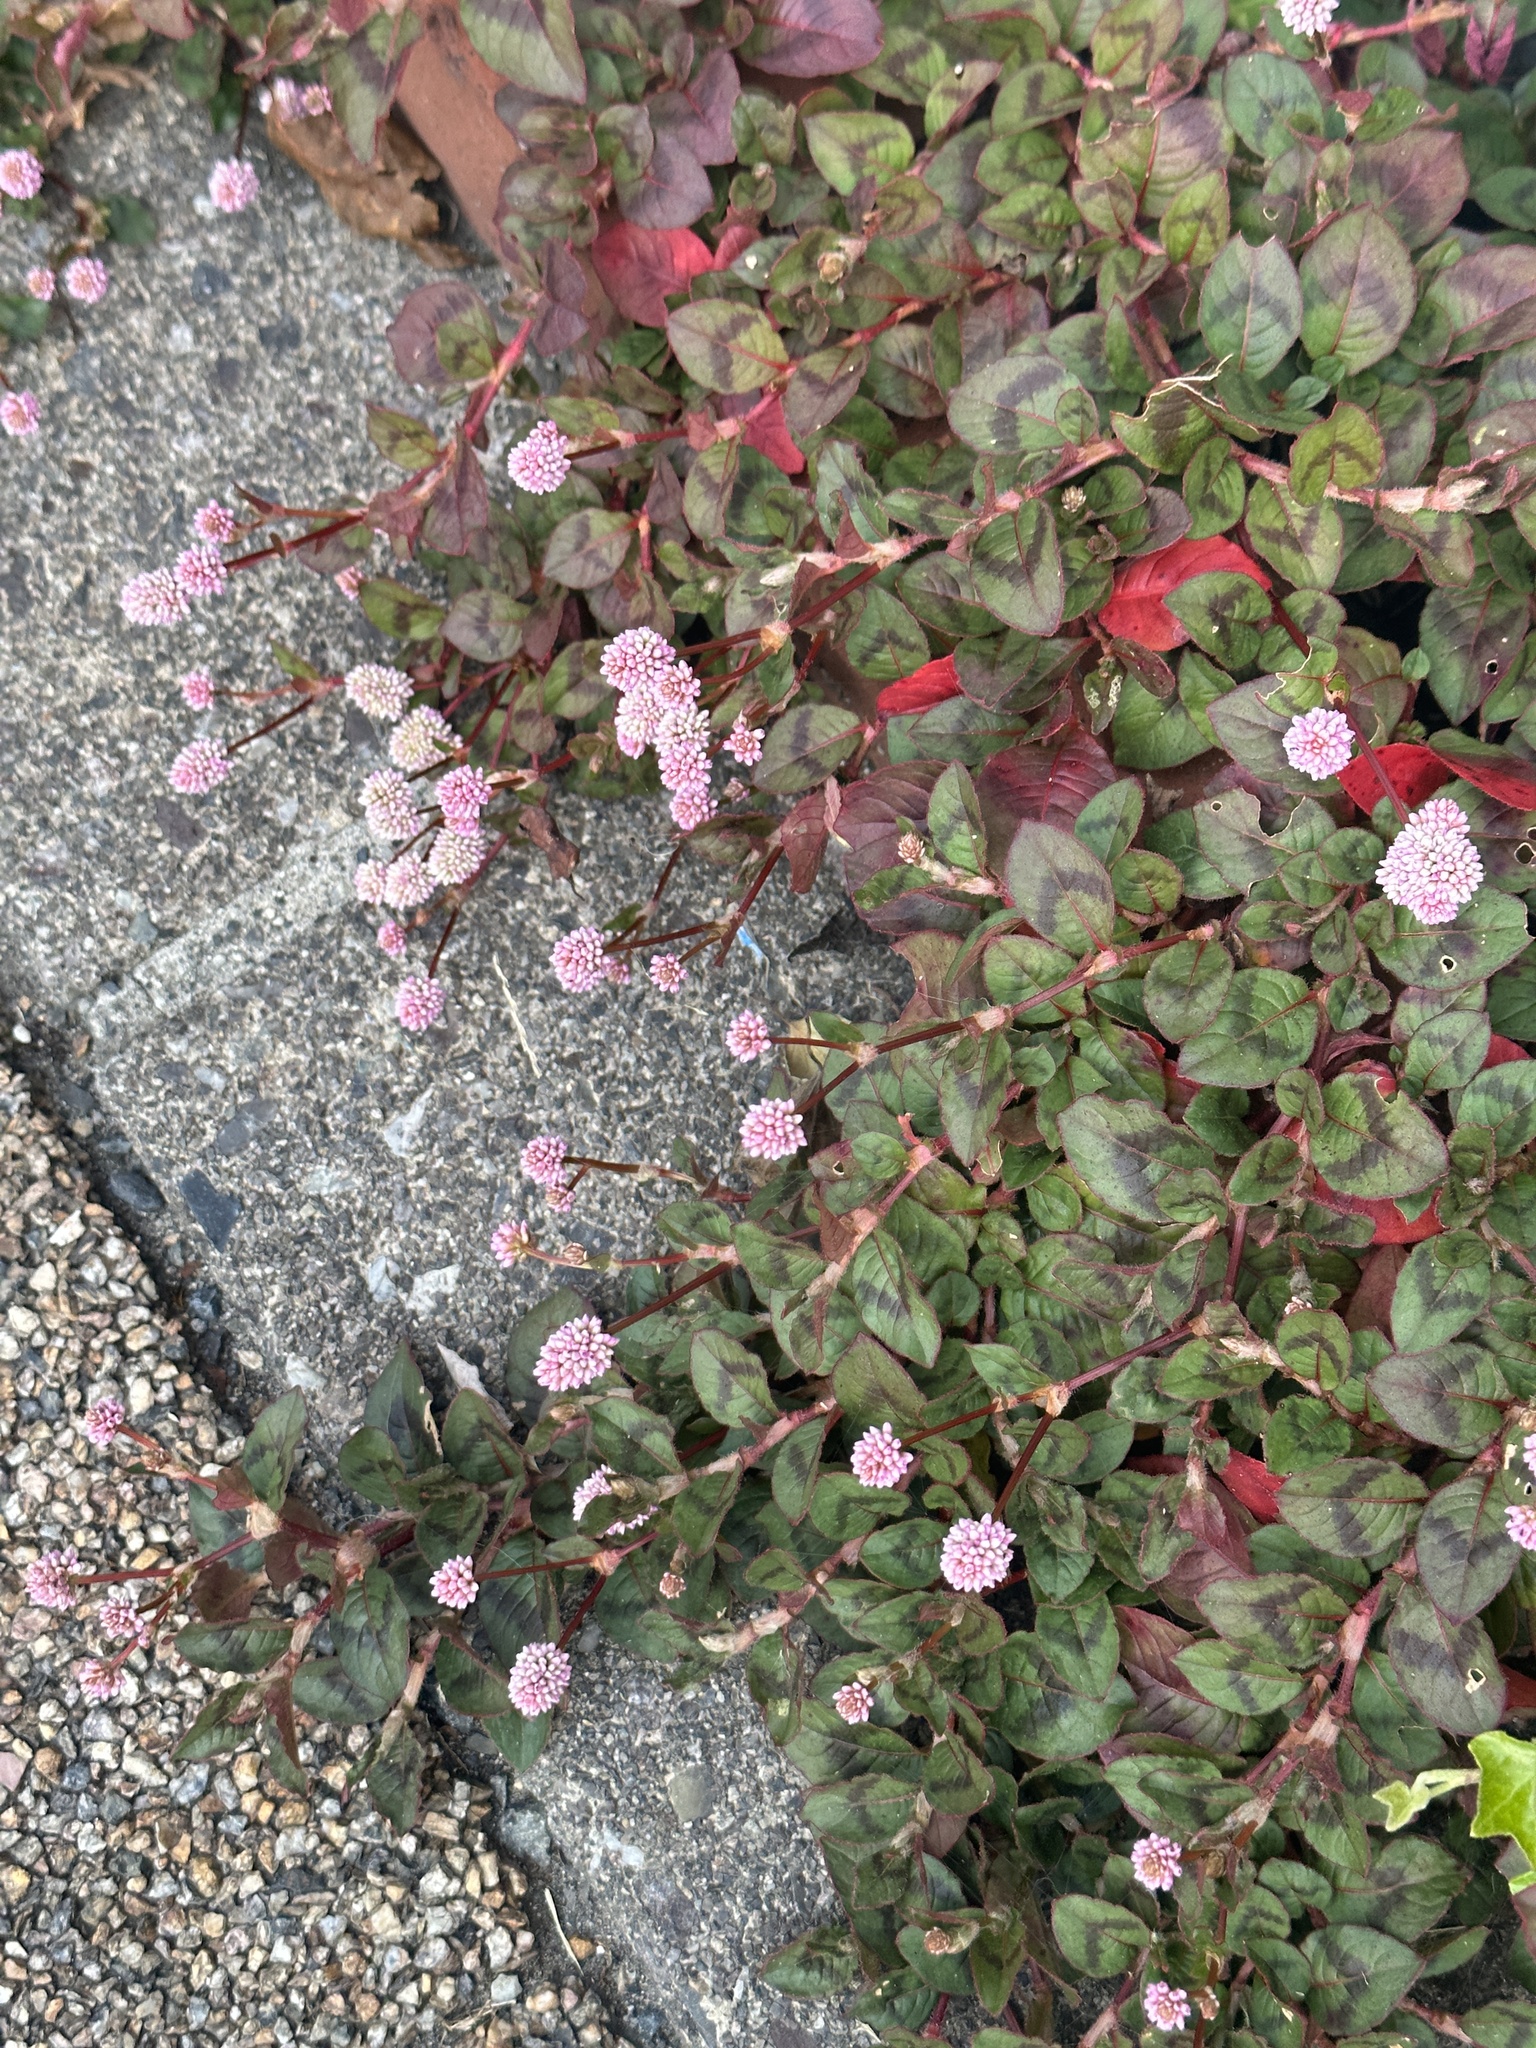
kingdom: Plantae
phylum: Tracheophyta
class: Magnoliopsida
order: Caryophyllales
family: Polygonaceae
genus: Persicaria
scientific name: Persicaria capitata
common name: Pinkhead smartweed
